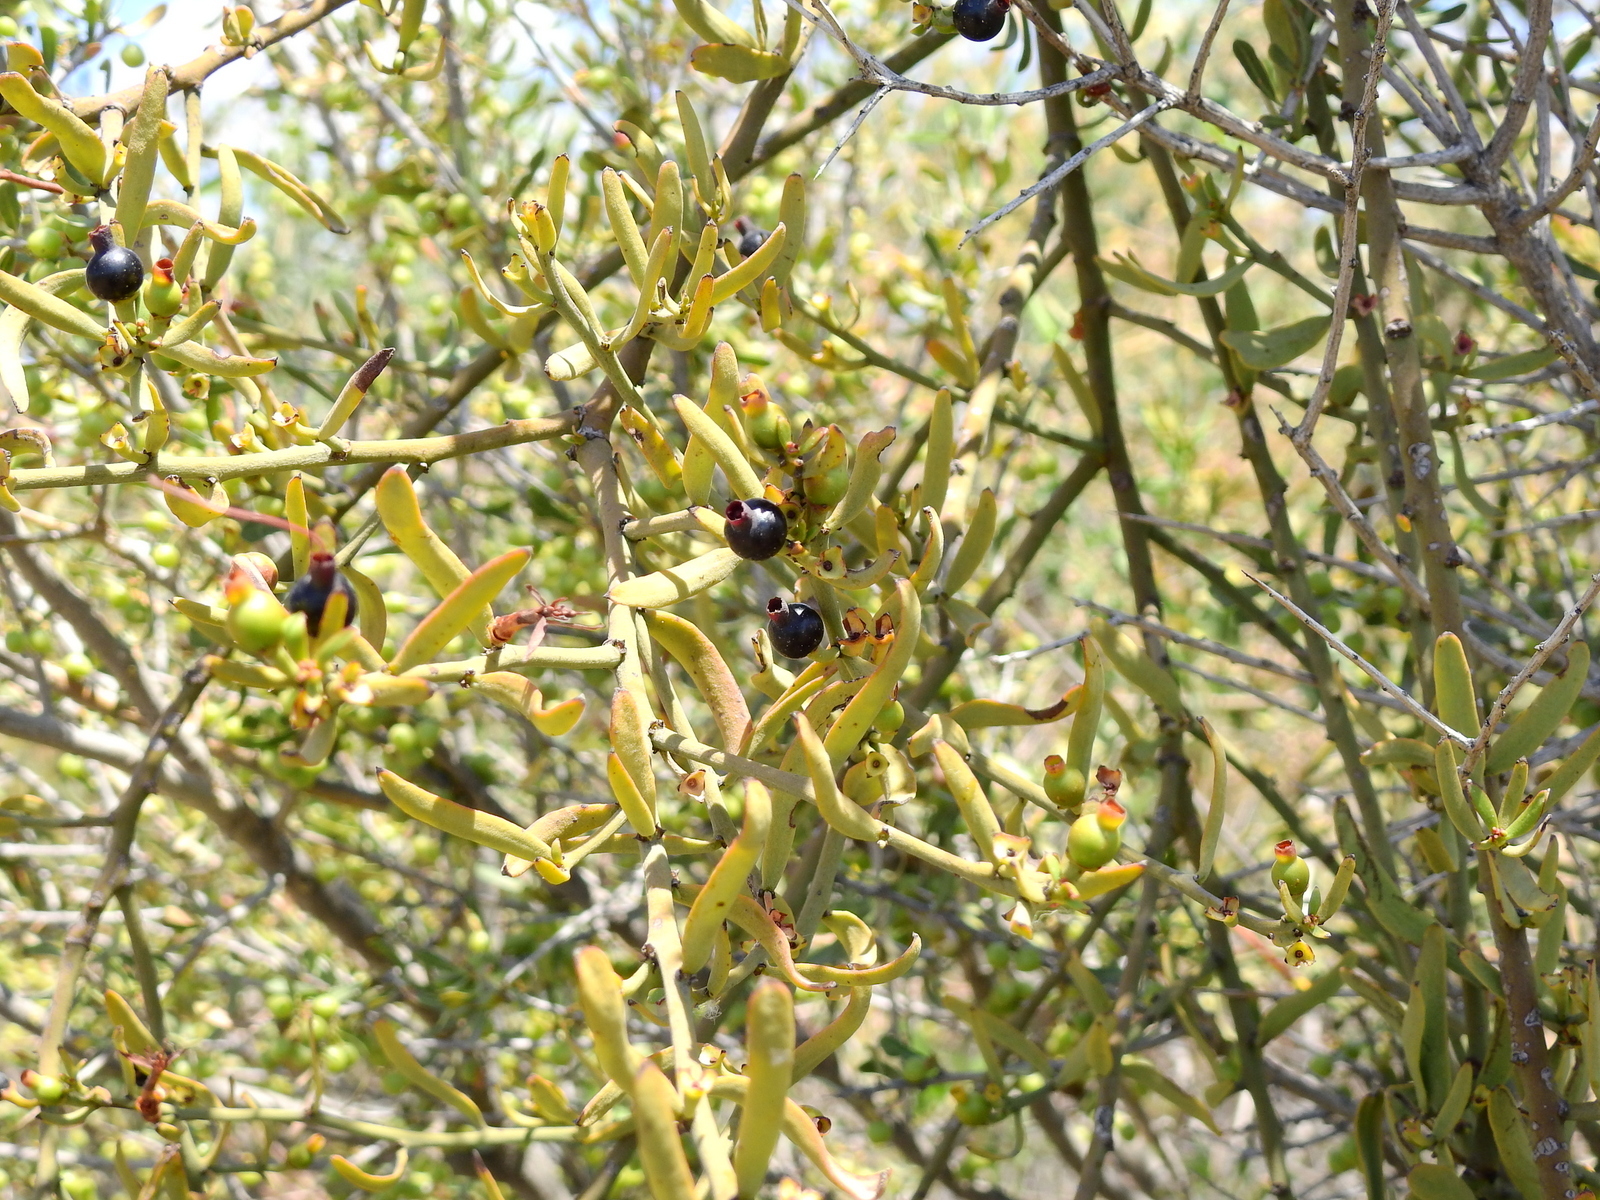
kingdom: Plantae
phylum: Tracheophyta
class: Magnoliopsida
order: Santalales
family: Loranthaceae
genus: Ligaria
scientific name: Ligaria cuneifolia
